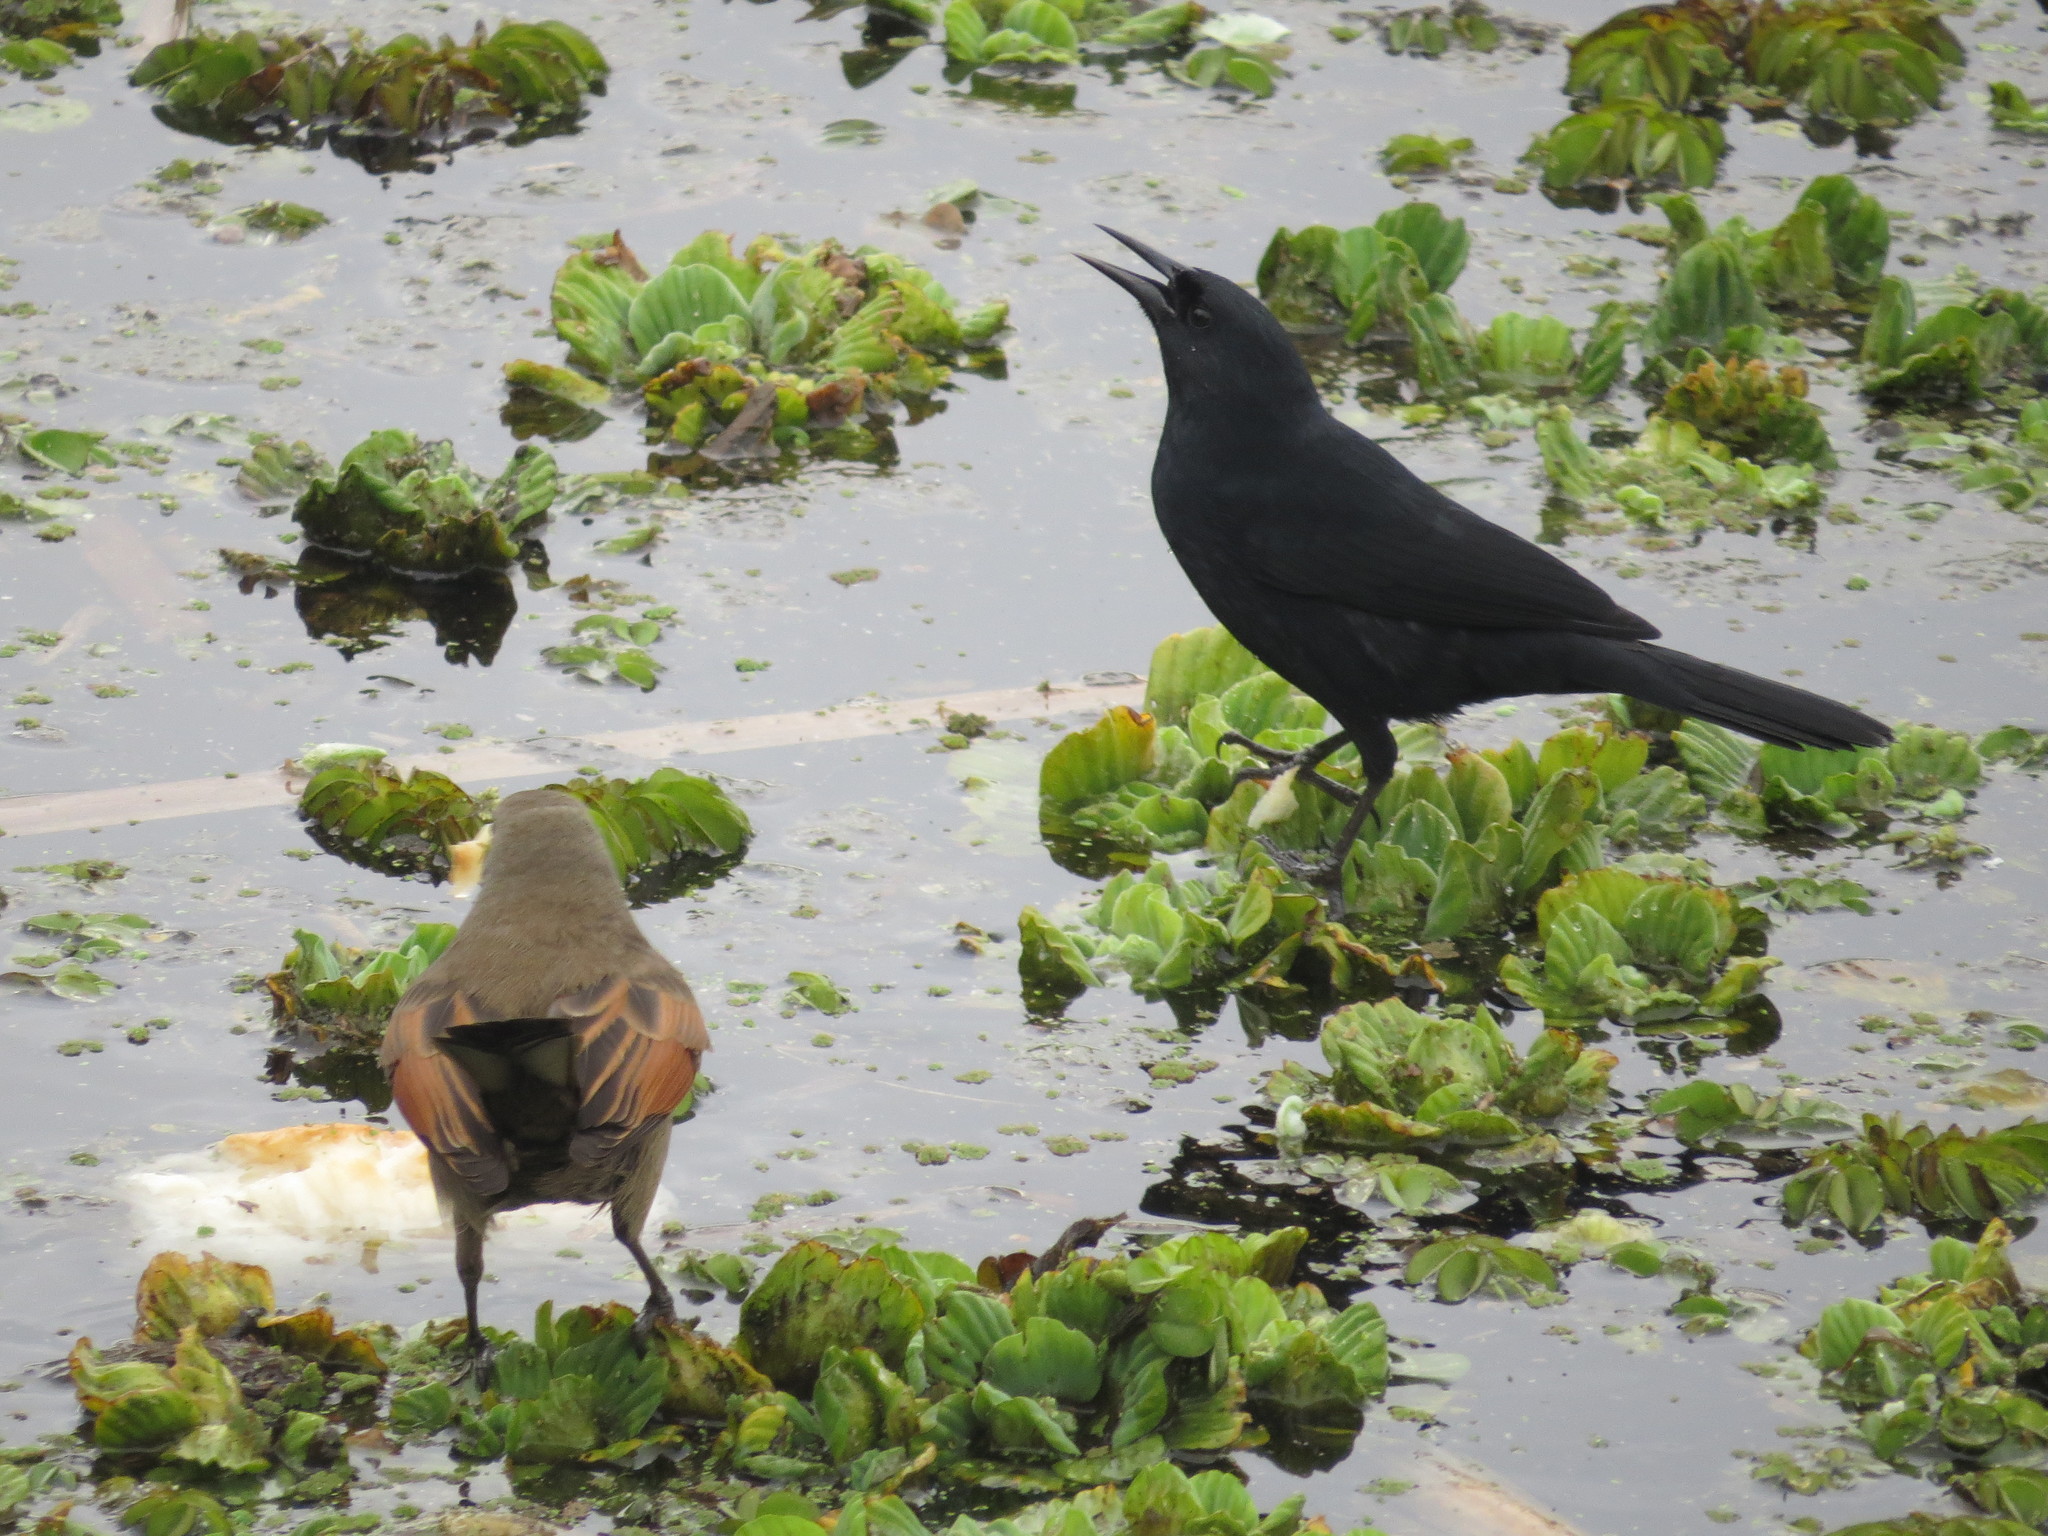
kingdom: Animalia
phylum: Chordata
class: Aves
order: Passeriformes
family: Icteridae
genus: Agelasticus
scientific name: Agelasticus cyanopus
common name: Unicolored blackbird
